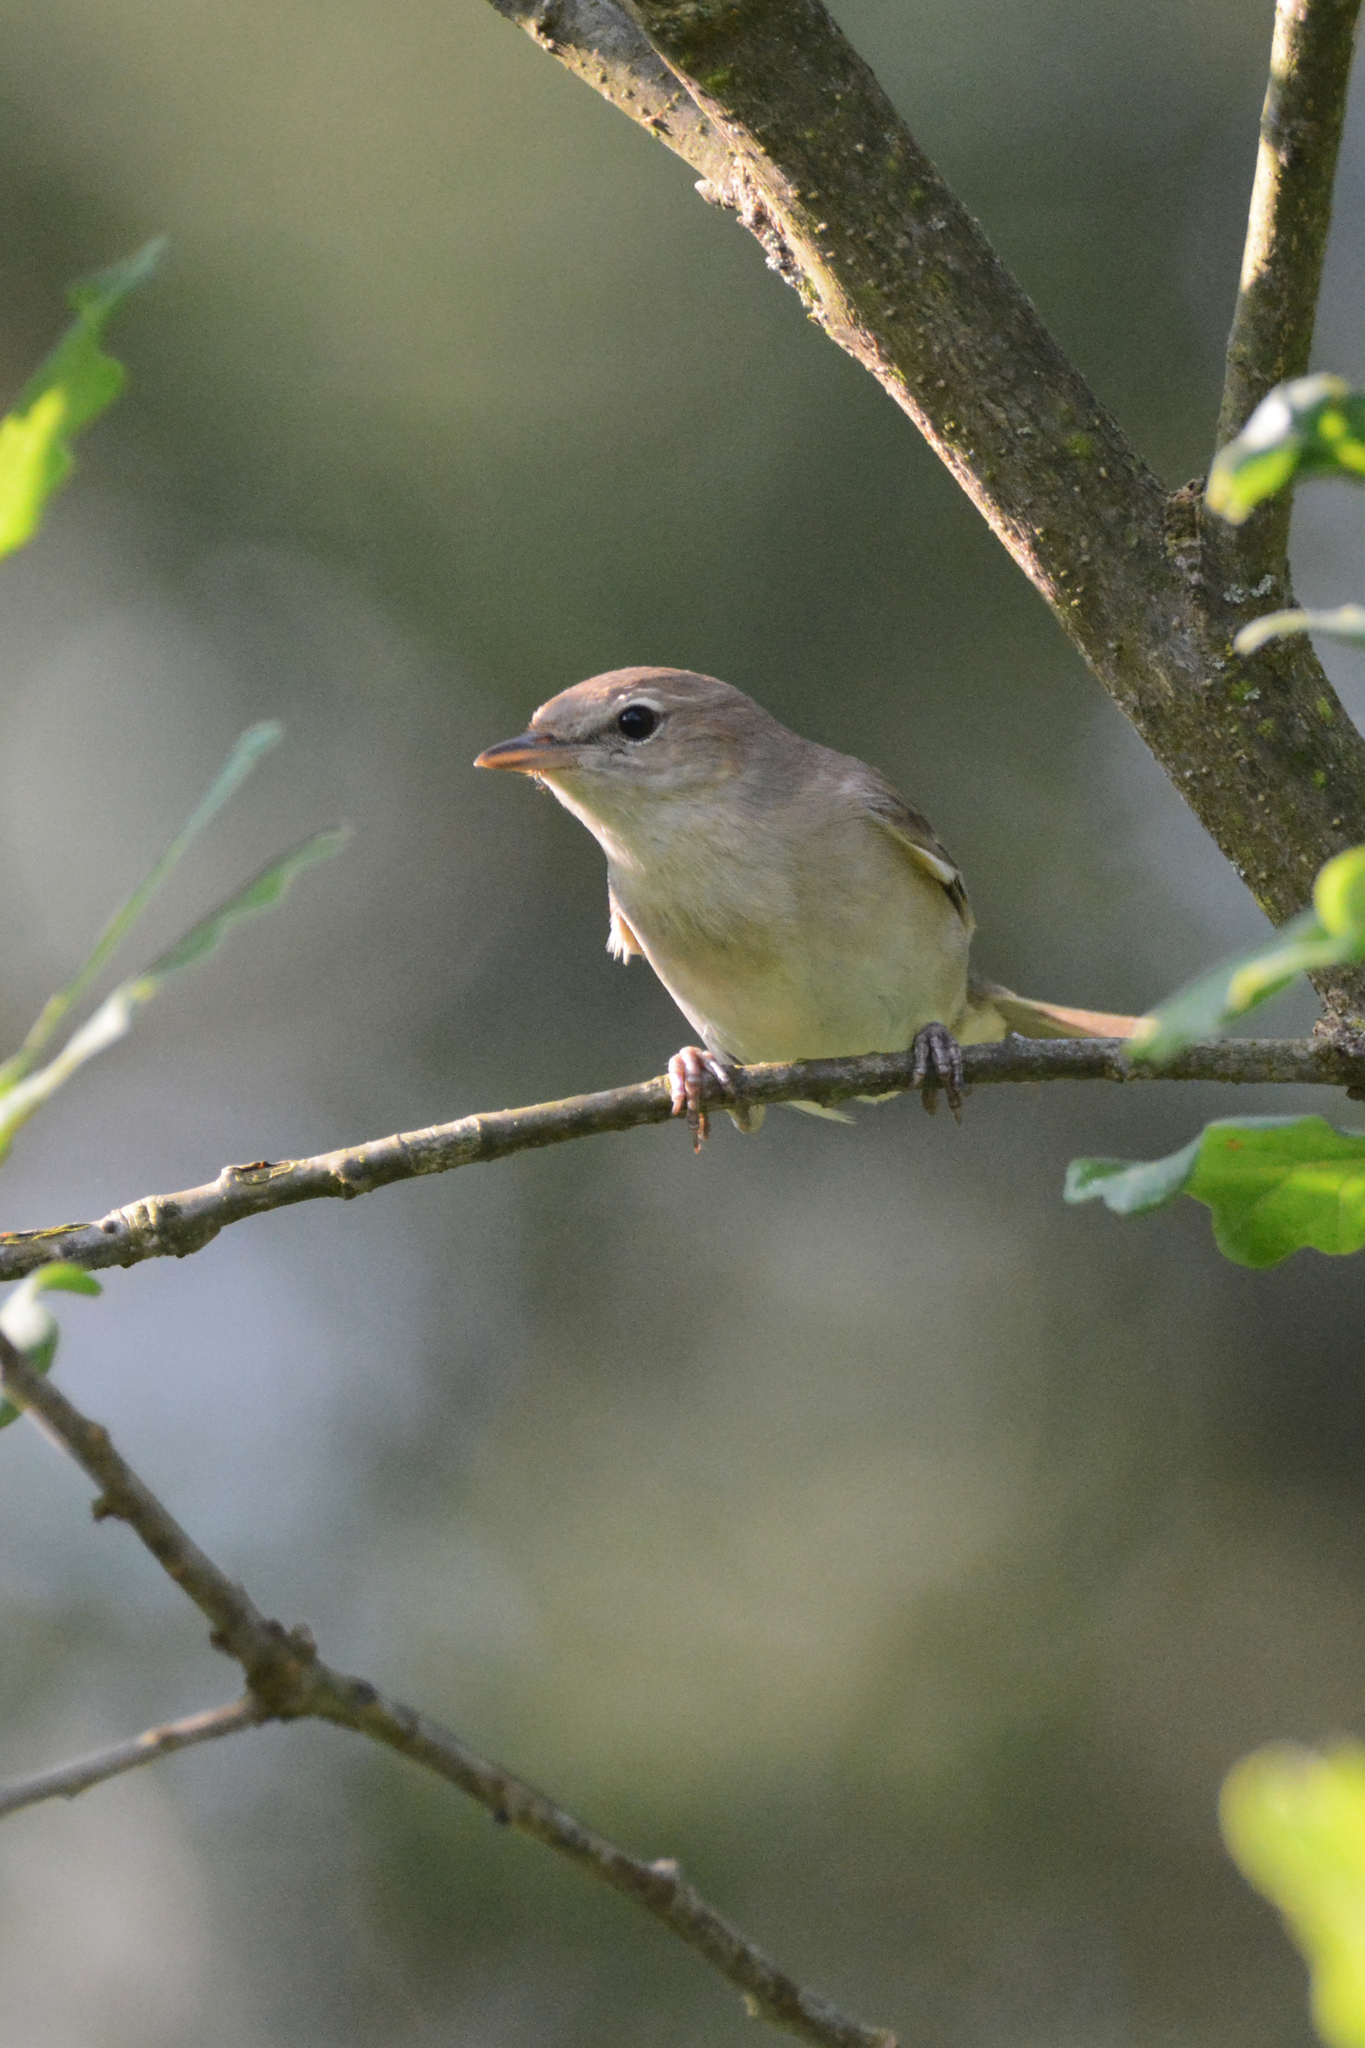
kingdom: Animalia
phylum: Chordata
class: Aves
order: Passeriformes
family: Sylviidae
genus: Sylvia
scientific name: Sylvia borin
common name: Garden warbler
